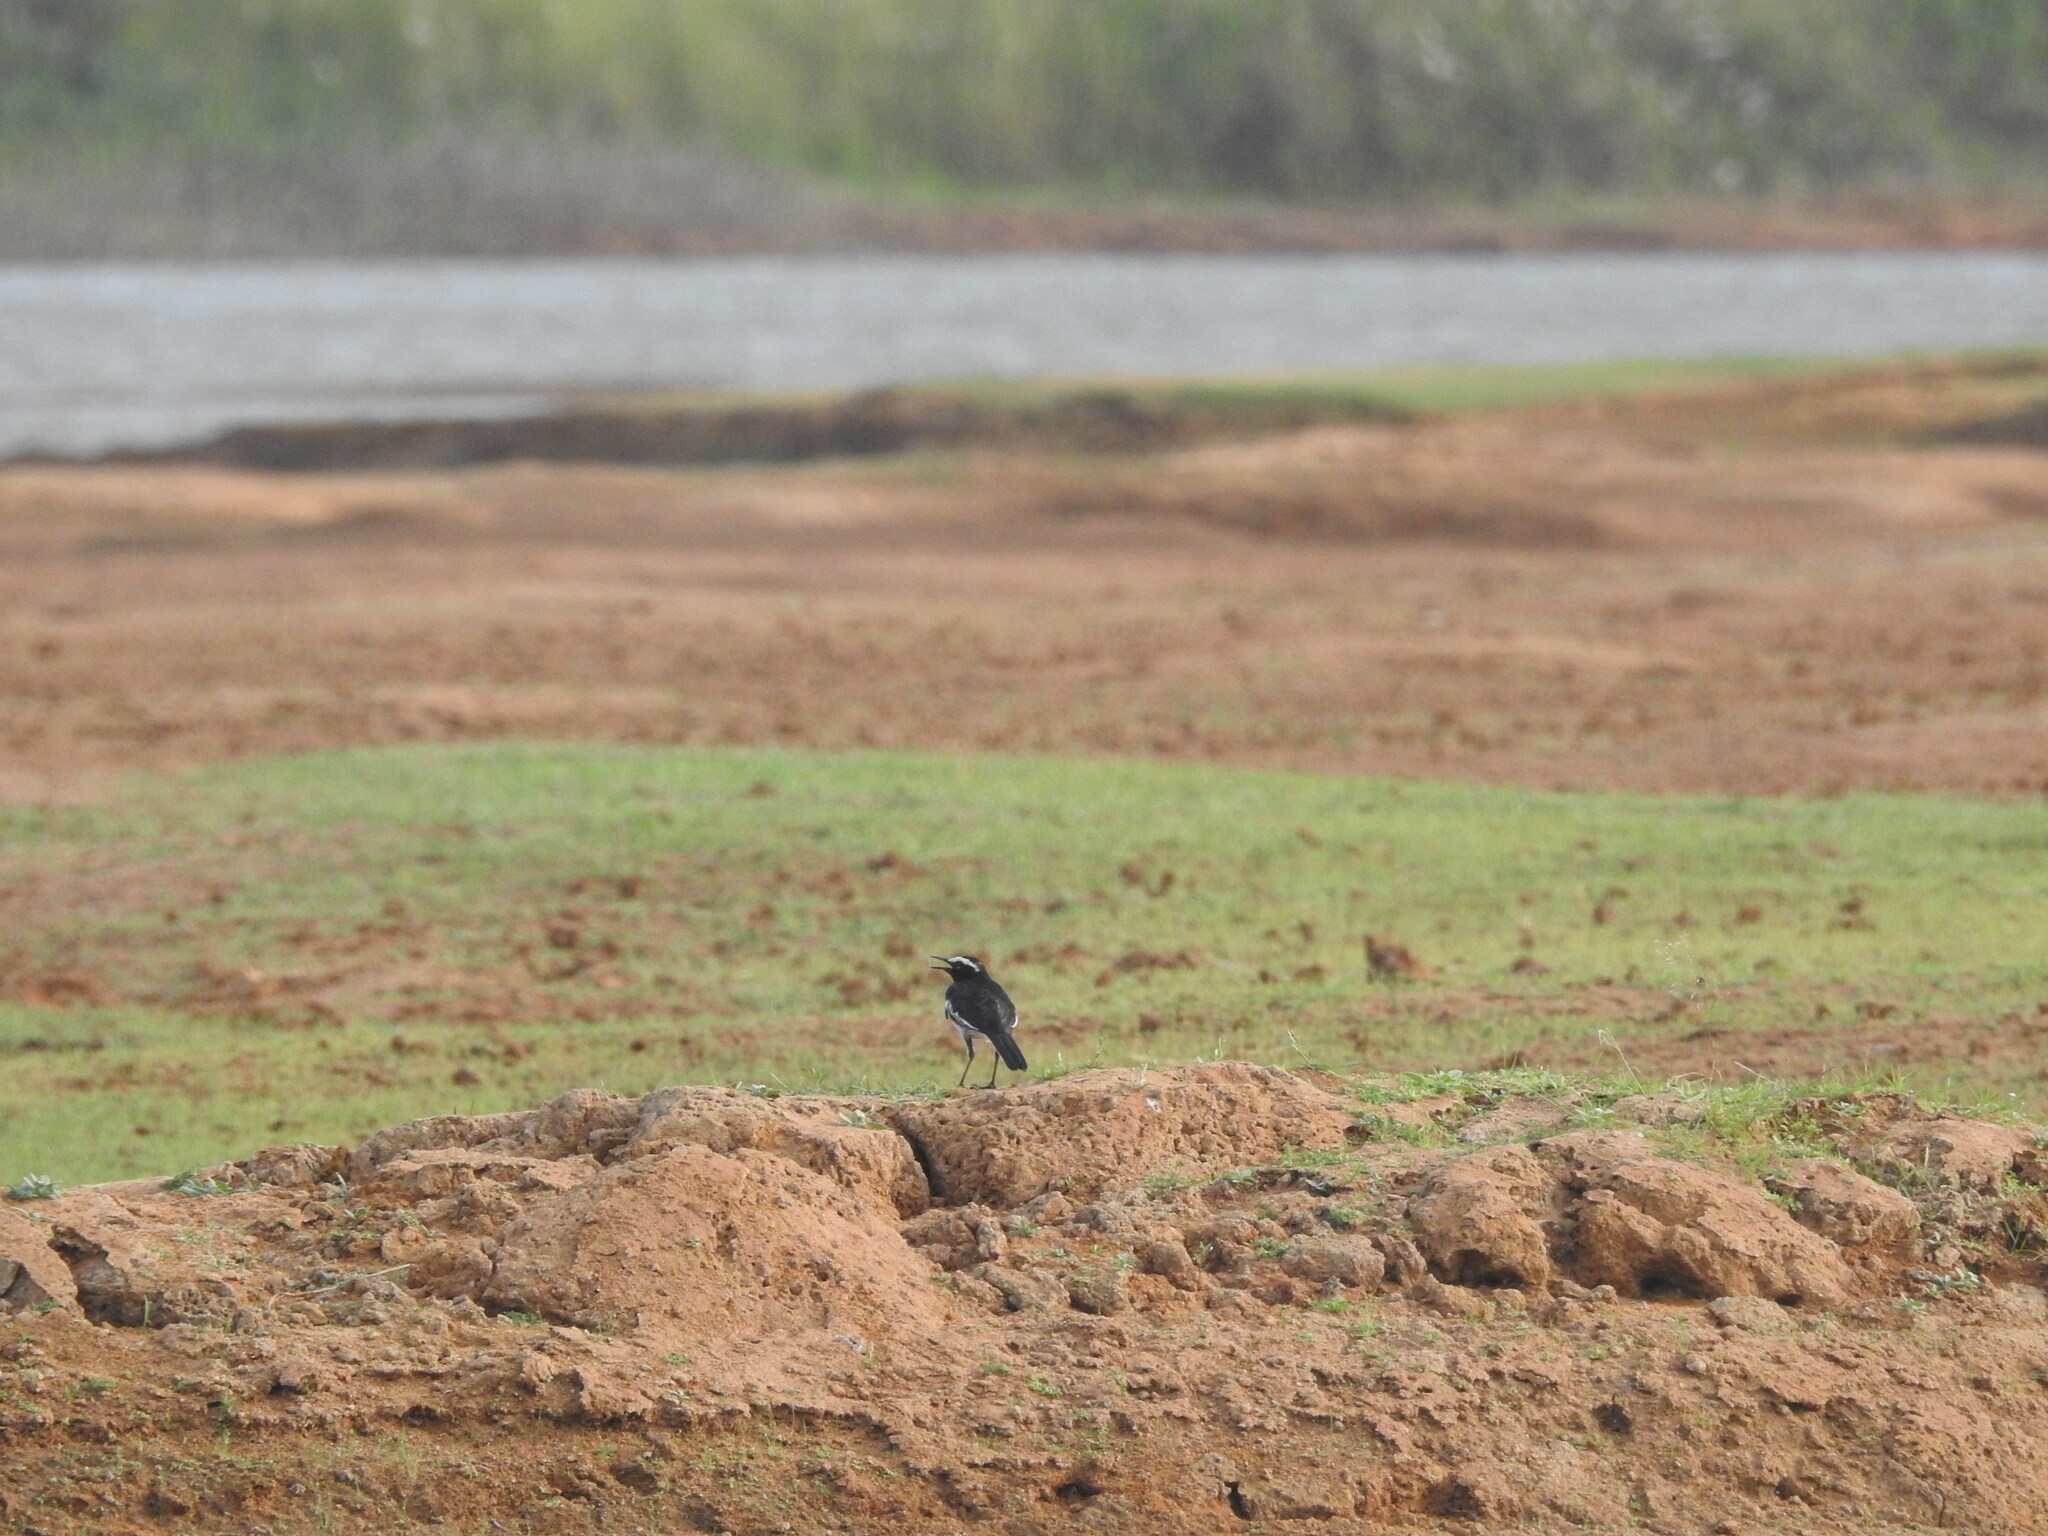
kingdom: Animalia
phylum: Chordata
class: Aves
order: Passeriformes
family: Motacillidae
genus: Motacilla
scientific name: Motacilla maderaspatensis
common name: White-browed wagtail
